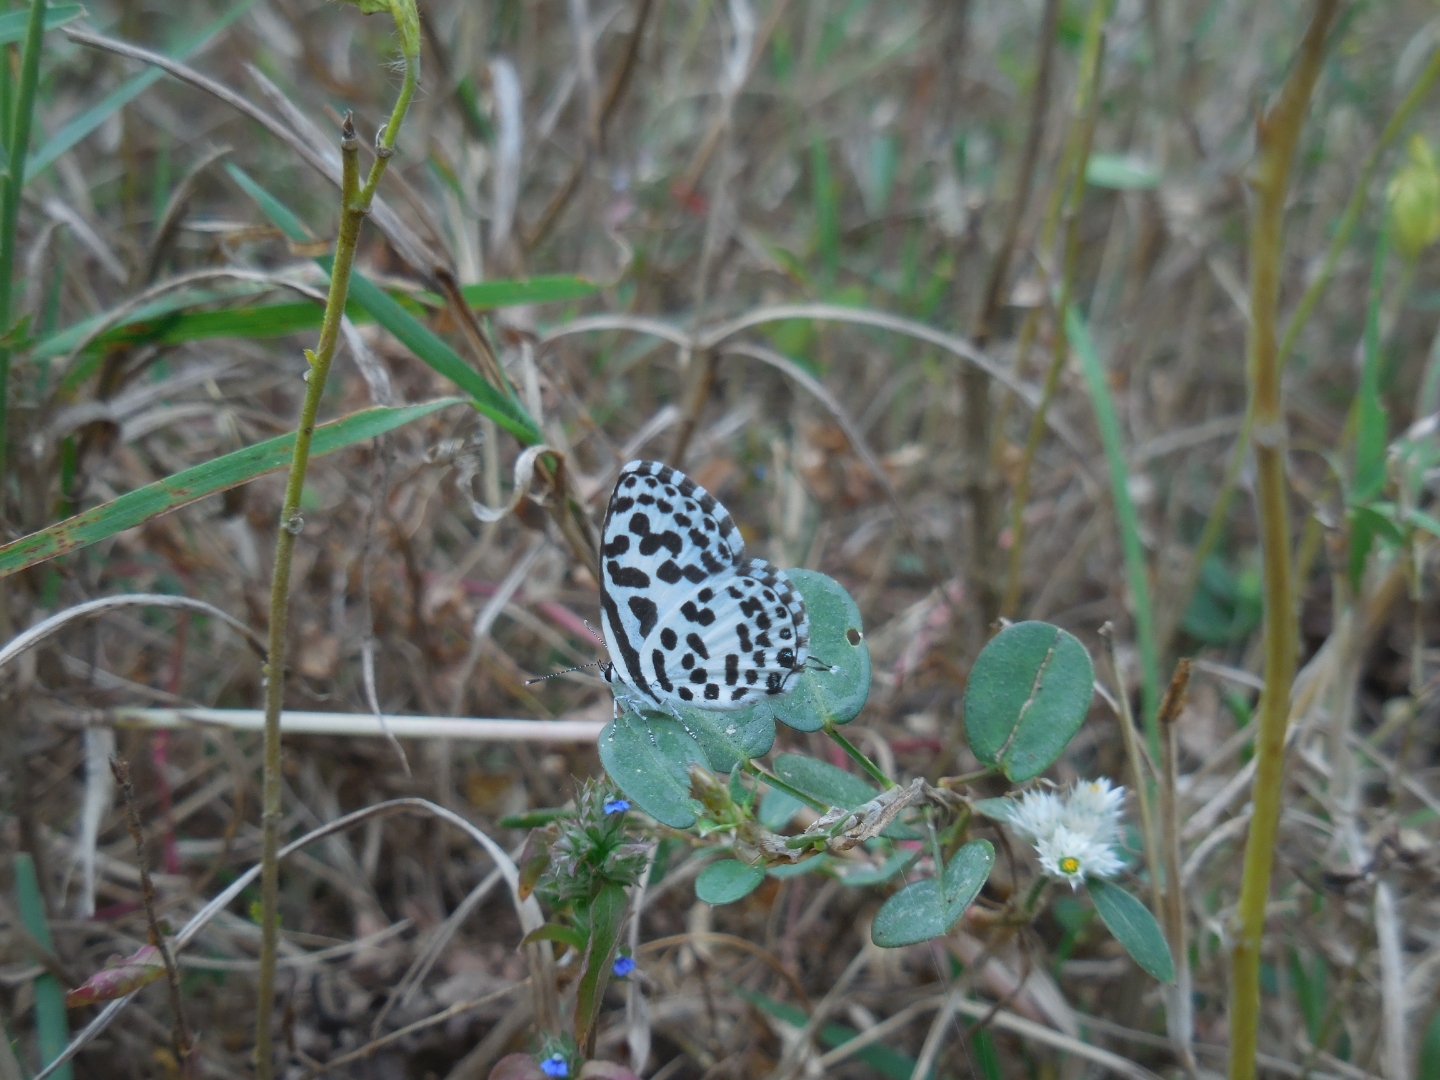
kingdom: Animalia
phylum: Arthropoda
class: Insecta
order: Lepidoptera
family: Lycaenidae
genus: Castalius
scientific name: Castalius rosimon
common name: Common pierrot
